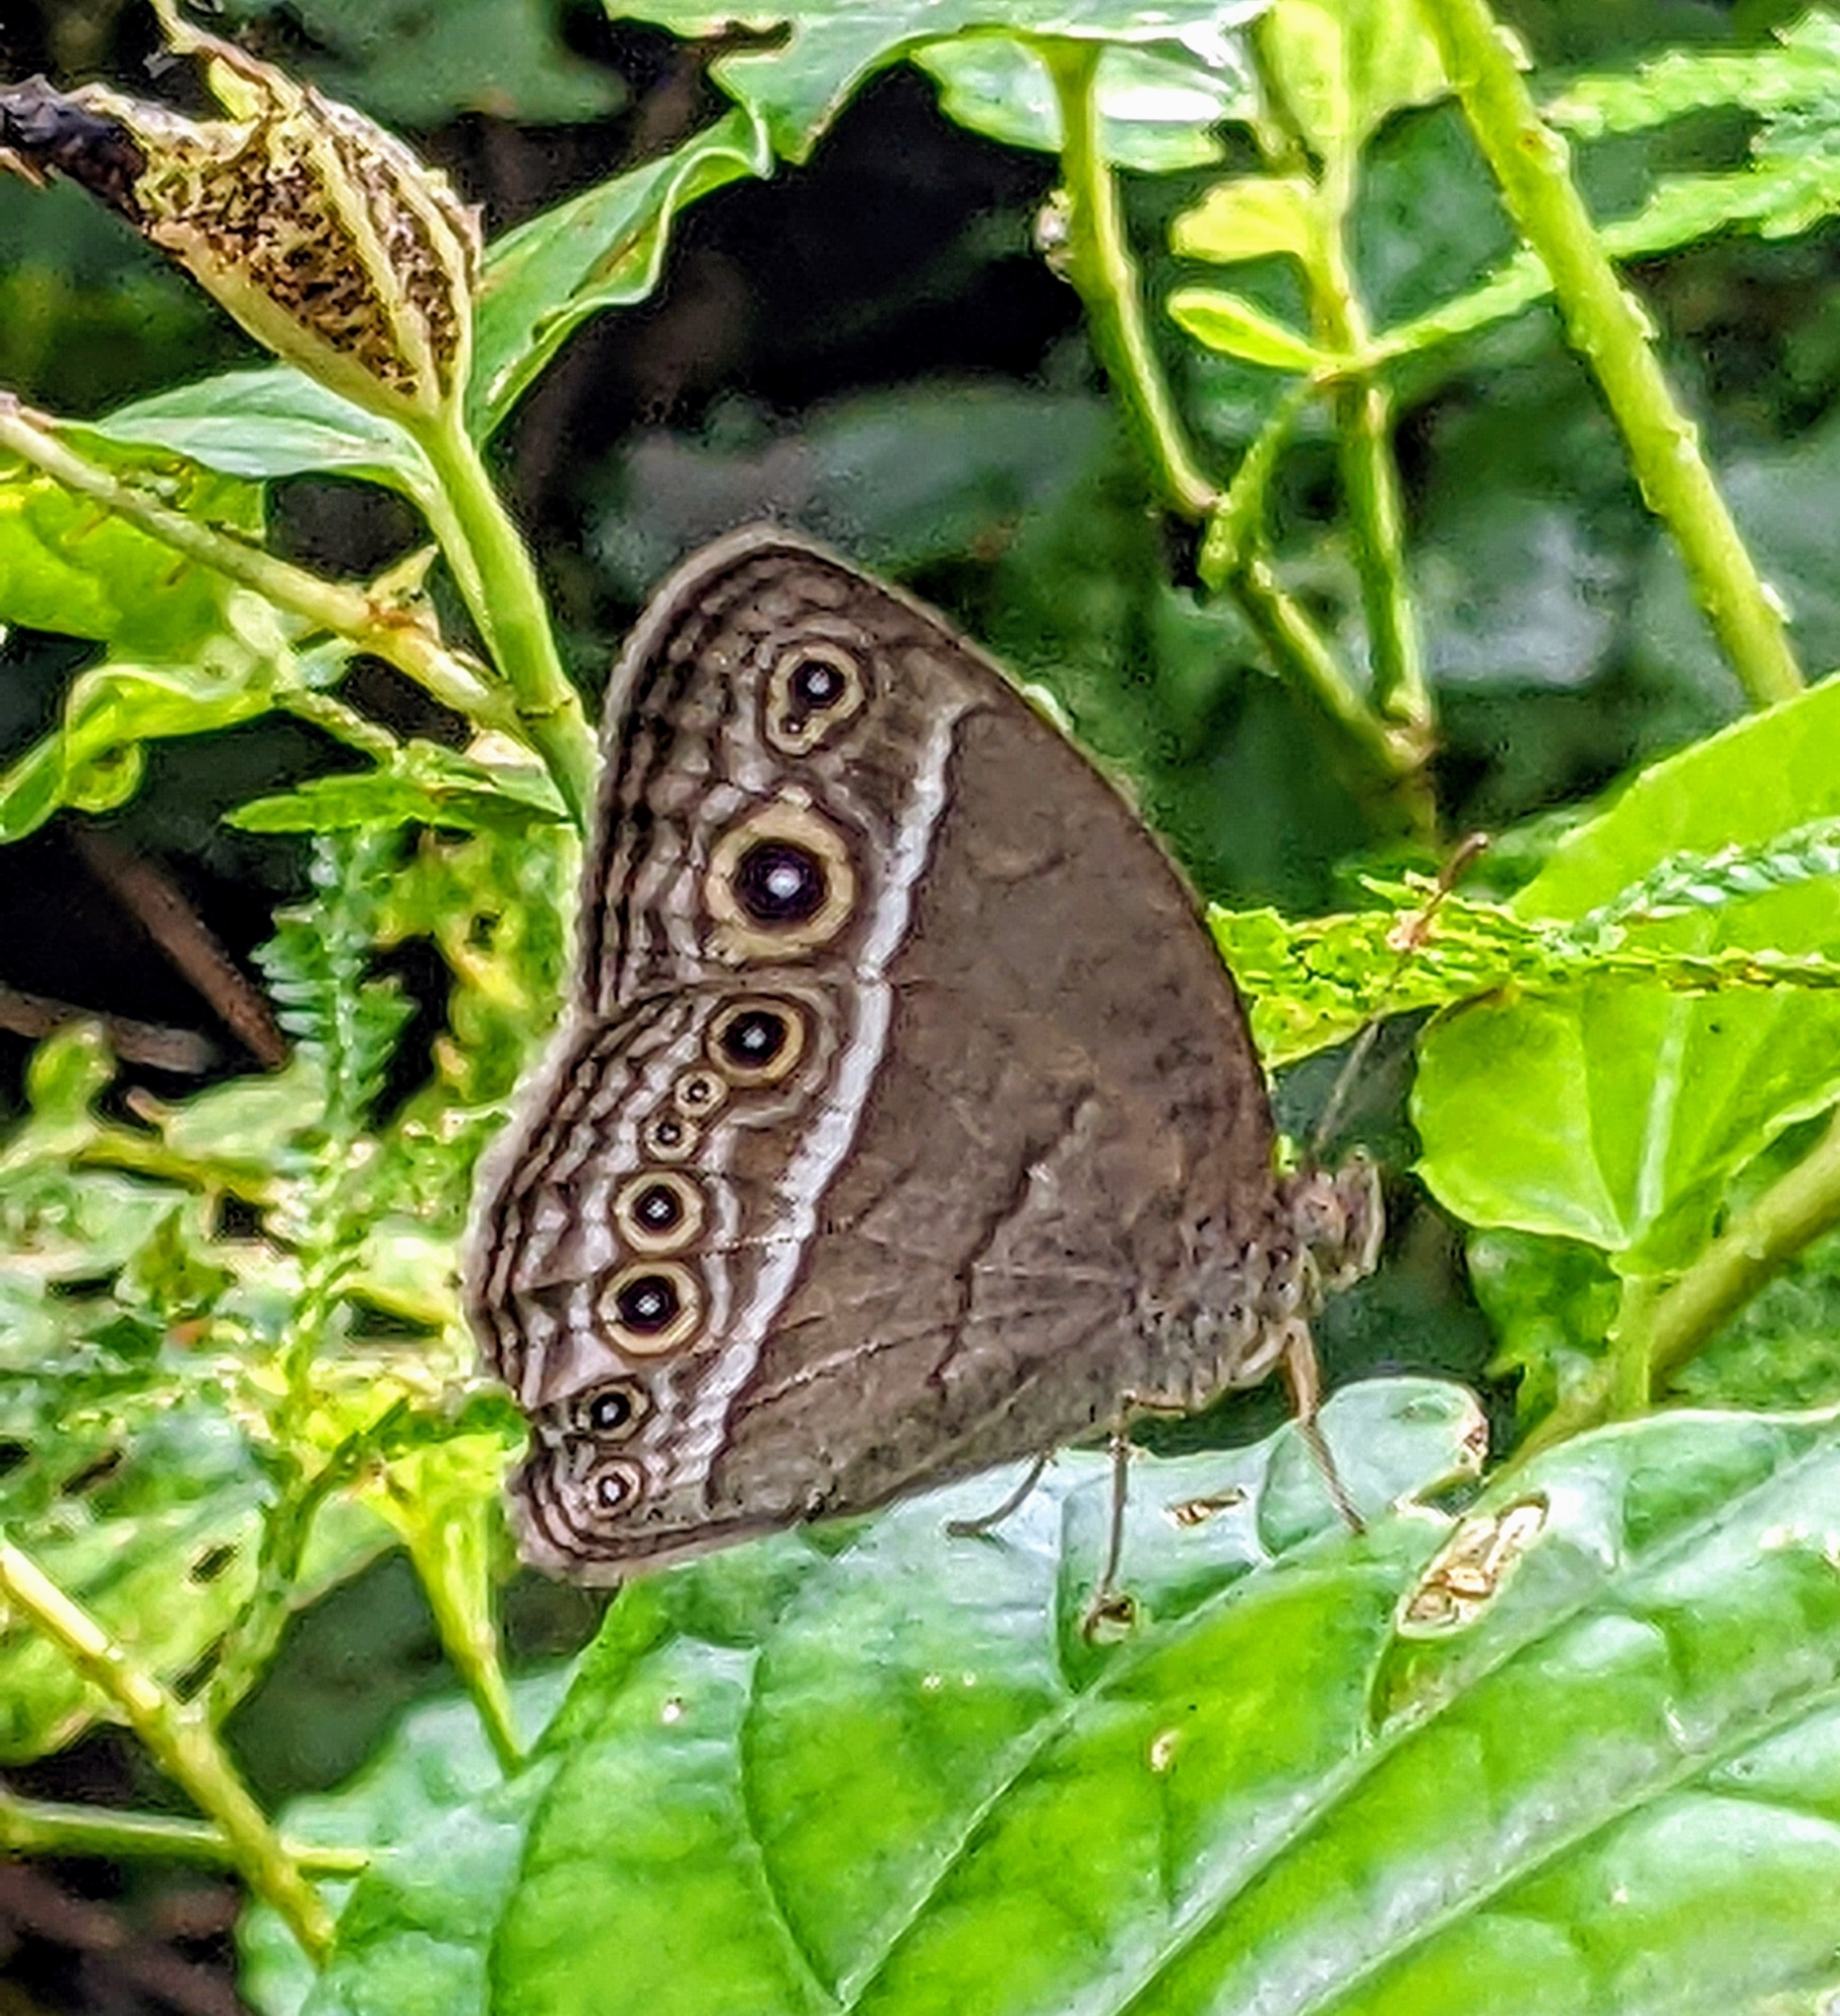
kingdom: Animalia
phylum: Arthropoda
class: Insecta
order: Lepidoptera
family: Nymphalidae
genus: Mycalesis
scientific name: Mycalesis perseoides
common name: Burmese bushbrown
